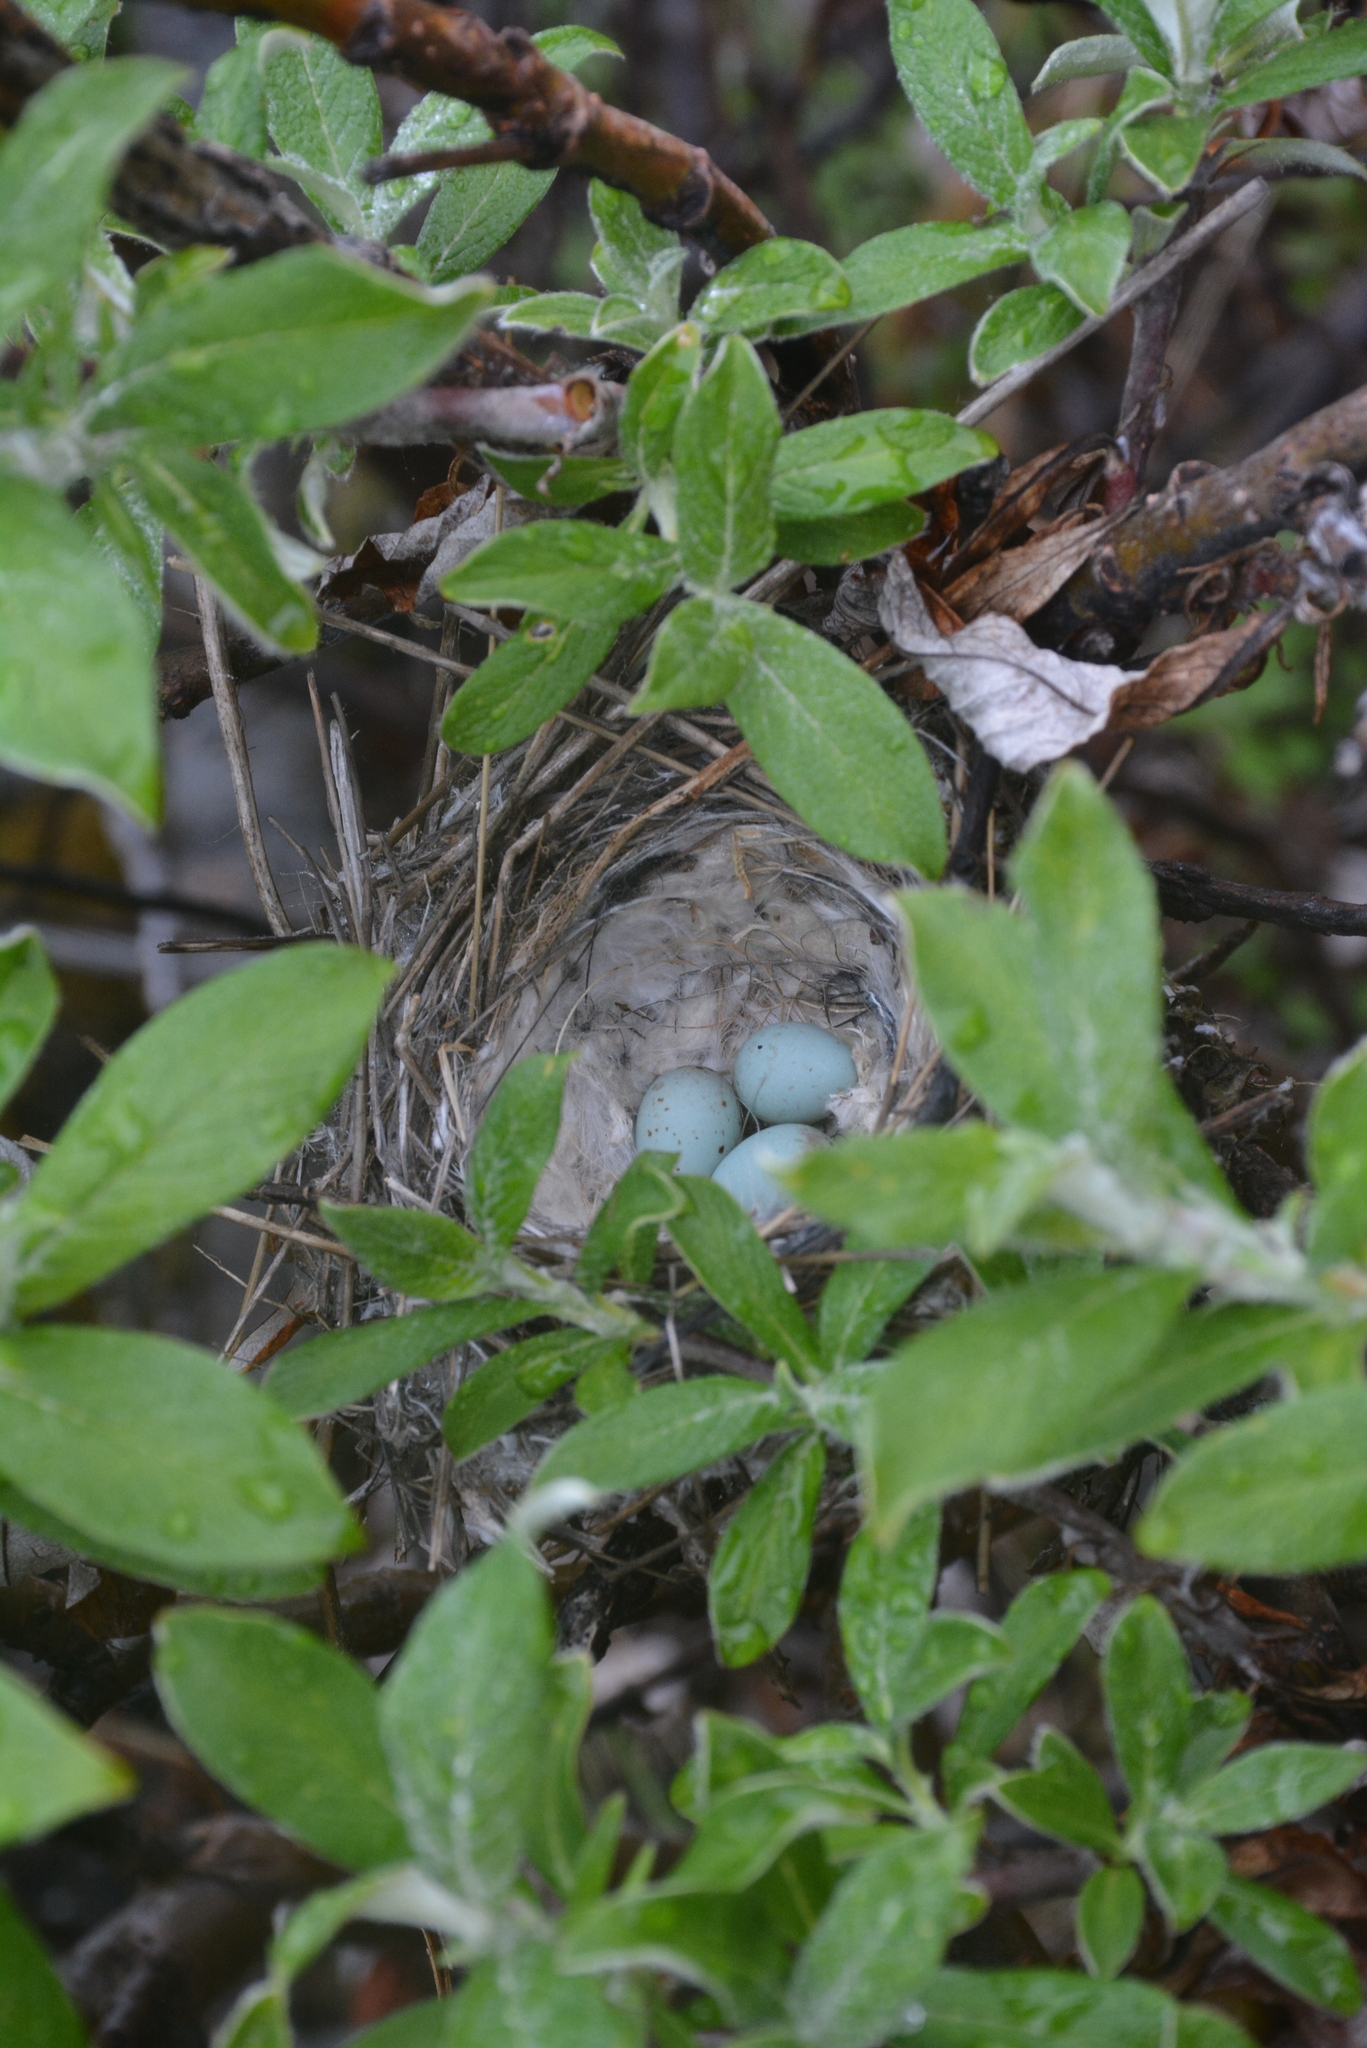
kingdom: Animalia
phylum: Chordata
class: Aves
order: Passeriformes
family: Fringillidae
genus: Acanthis
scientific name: Acanthis hornemanni
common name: Arctic redpoll
